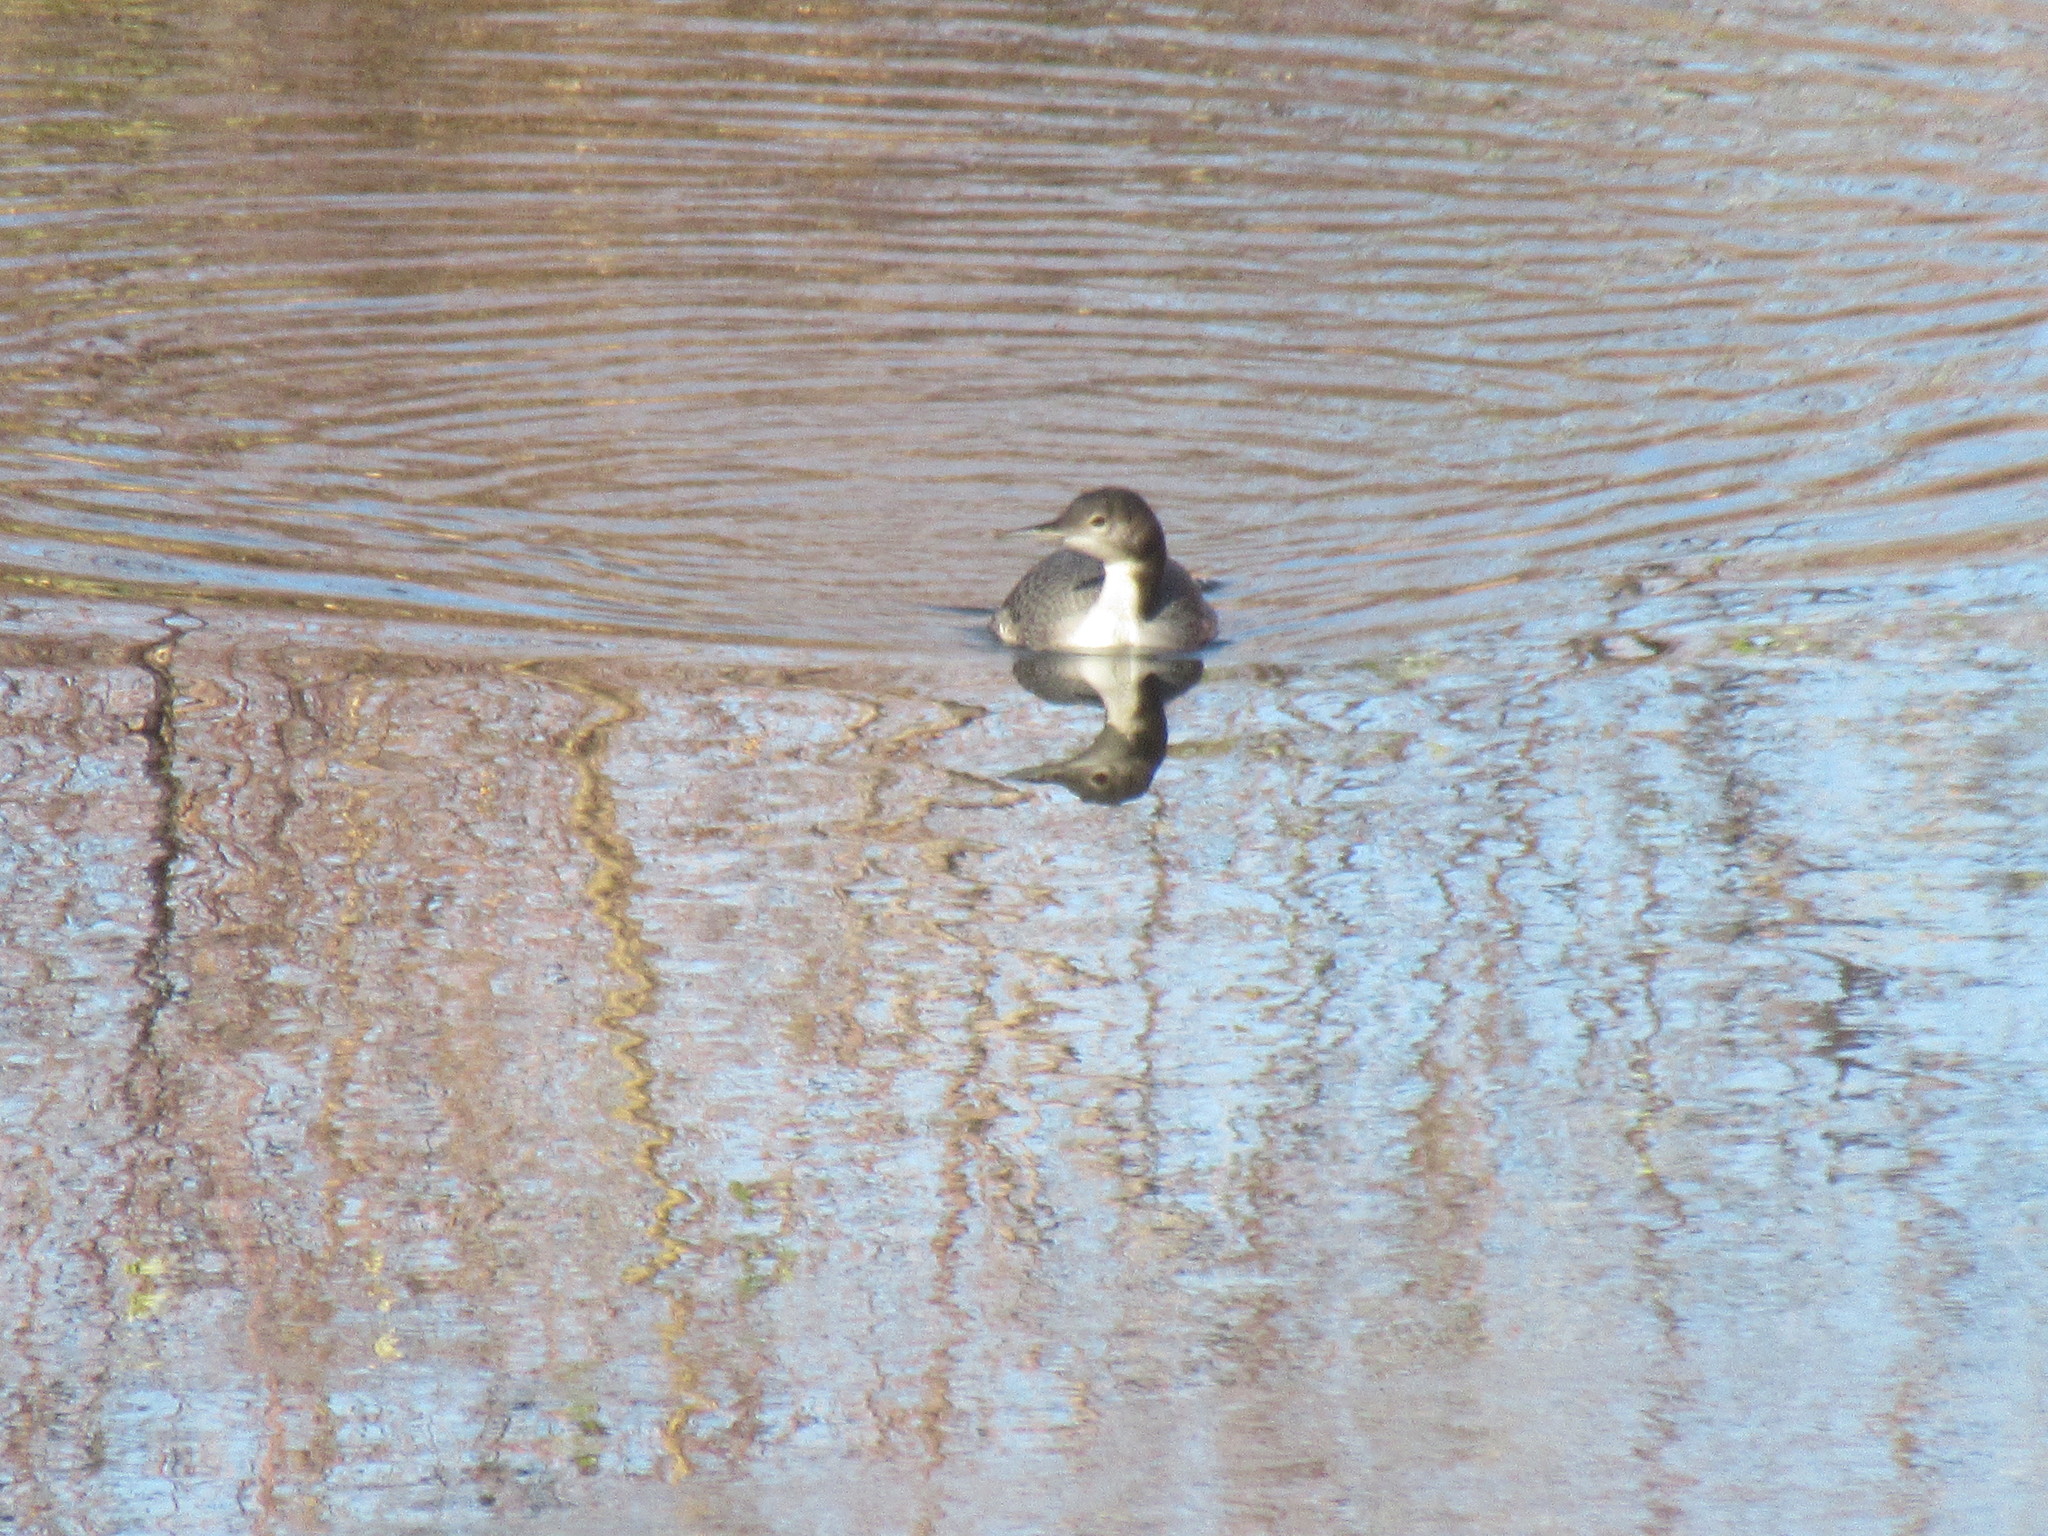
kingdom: Animalia
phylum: Chordata
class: Aves
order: Gaviiformes
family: Gaviidae
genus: Gavia
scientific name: Gavia immer
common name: Common loon
